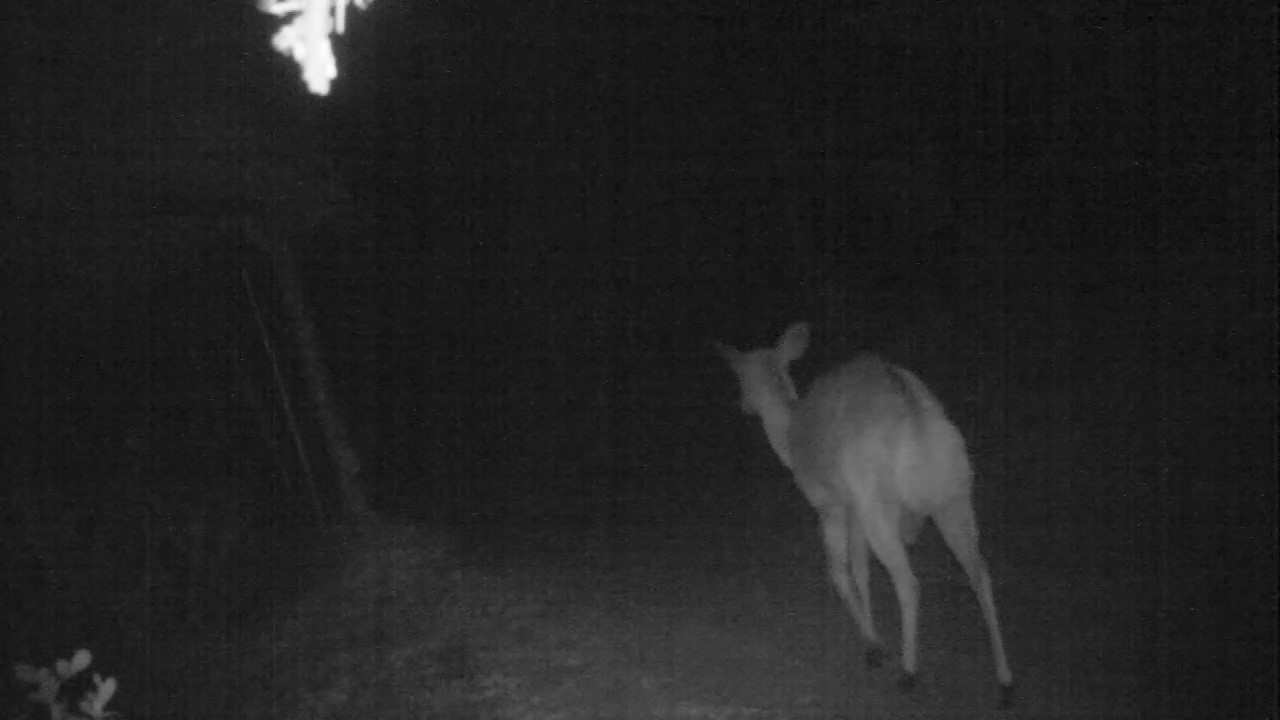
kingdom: Animalia
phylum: Chordata
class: Mammalia
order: Artiodactyla
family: Bovidae
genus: Tragelaphus
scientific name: Tragelaphus angasii
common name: Nyala
